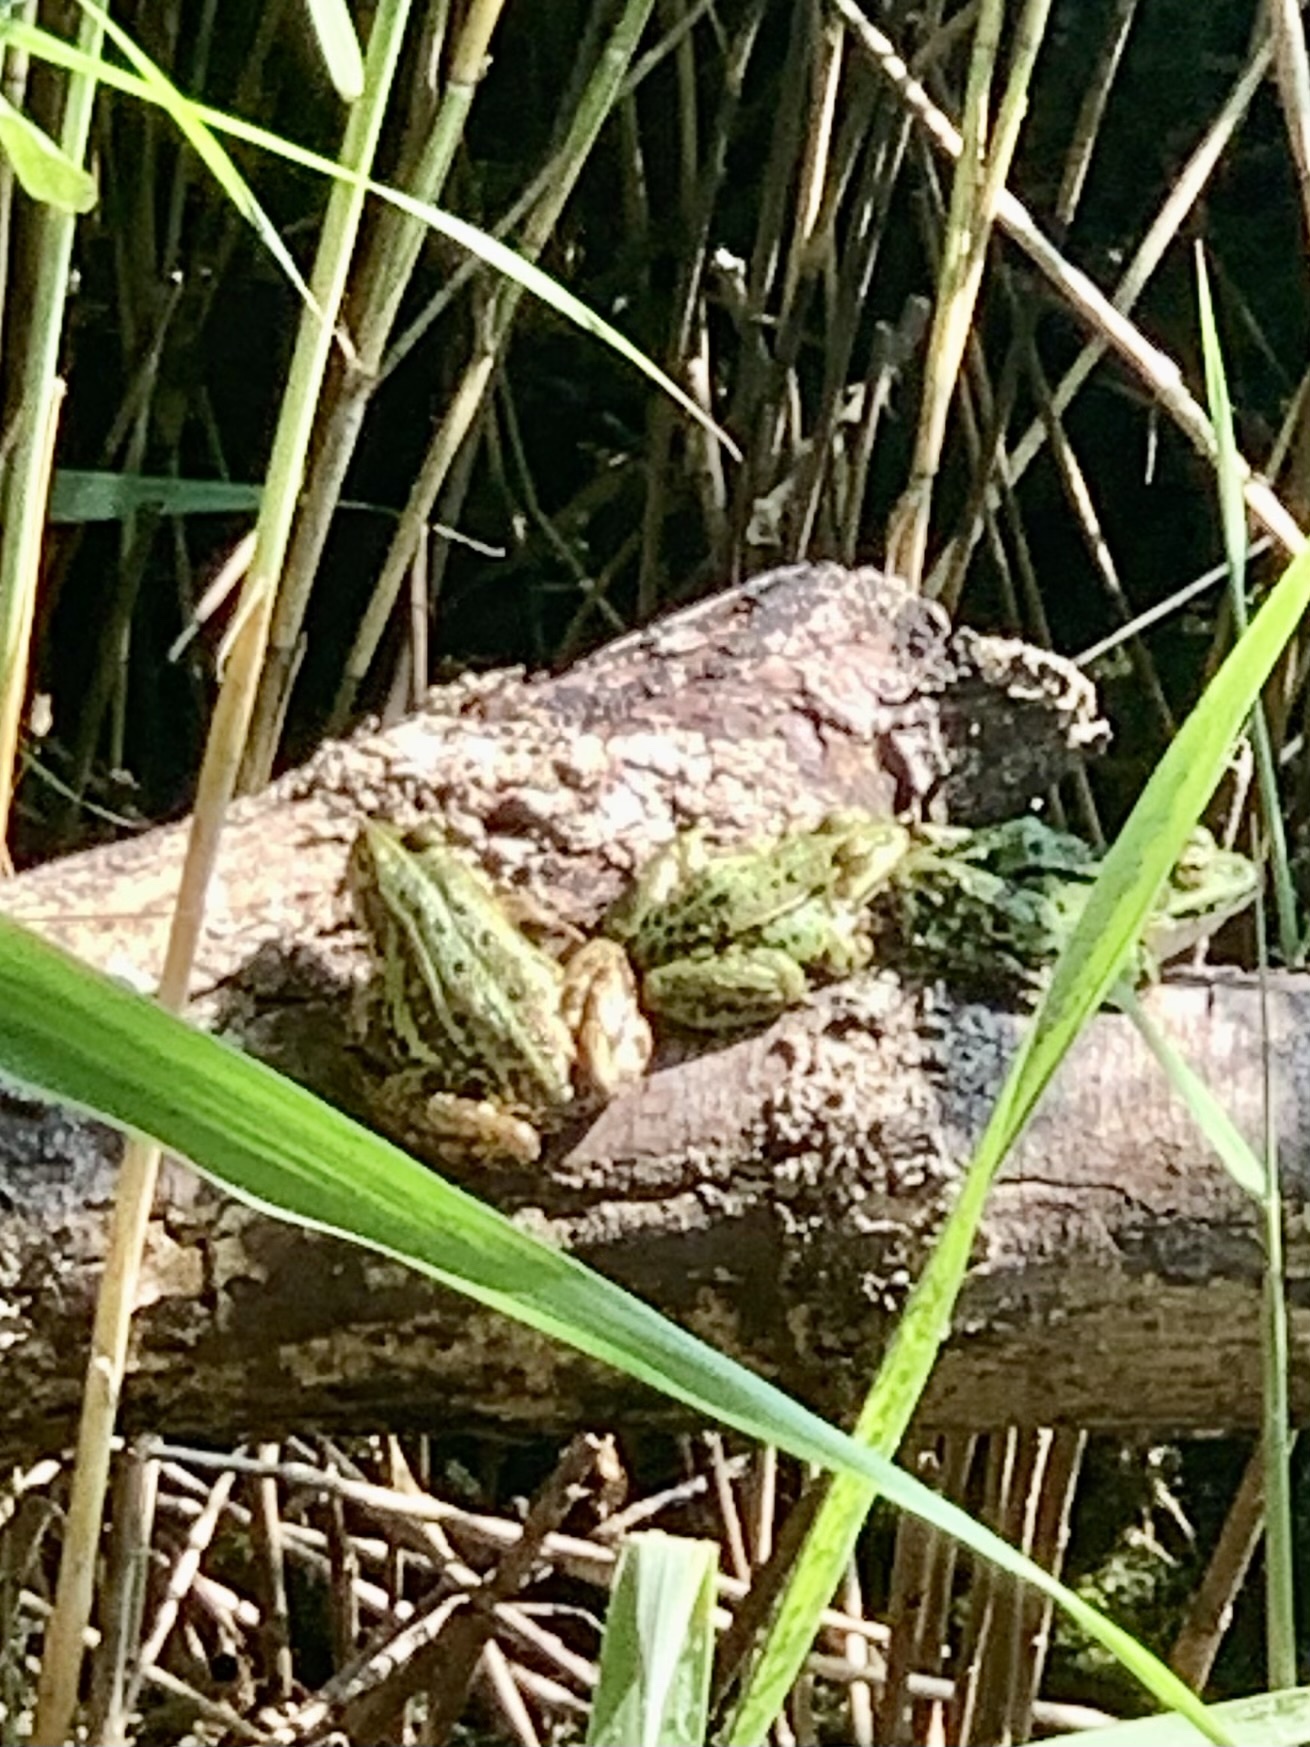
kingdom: Animalia
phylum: Chordata
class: Amphibia
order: Anura
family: Ranidae
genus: Pelophylax
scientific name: Pelophylax lessonae
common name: Pool frog
